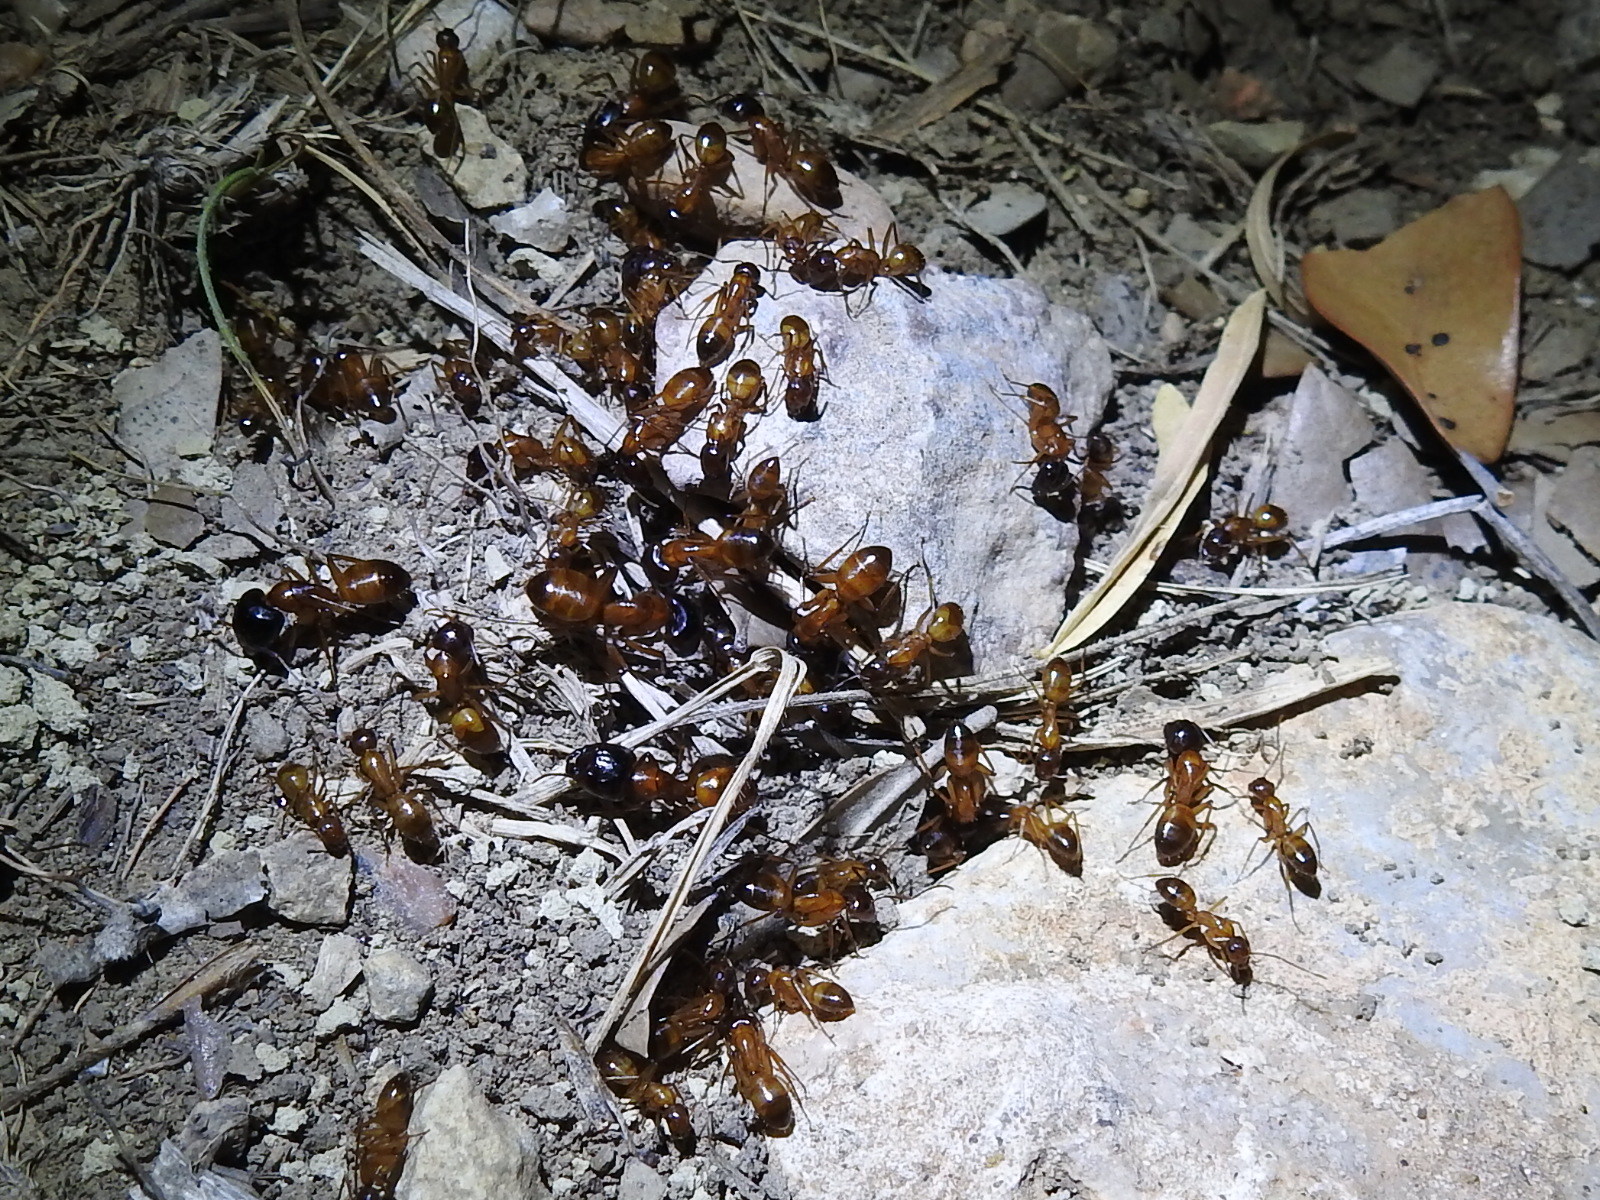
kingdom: Animalia
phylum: Arthropoda
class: Insecta
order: Hymenoptera
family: Formicidae
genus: Camponotus
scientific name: Camponotus sansabeanus
